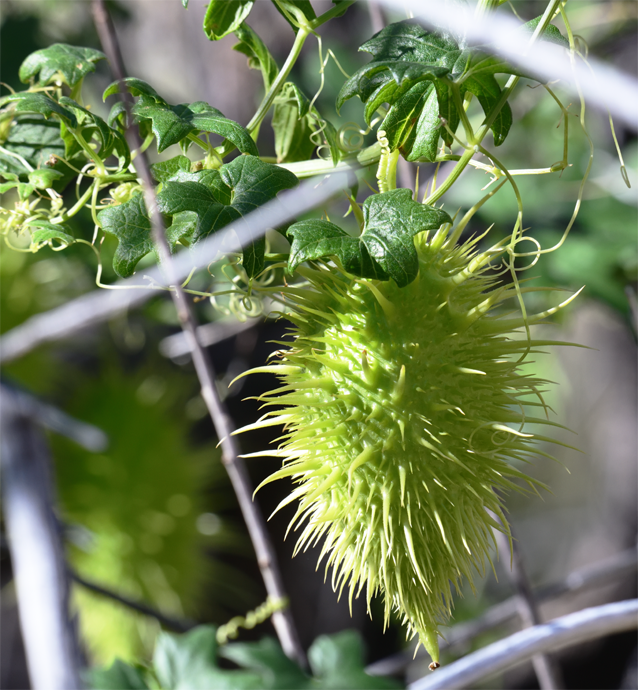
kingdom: Plantae
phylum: Tracheophyta
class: Magnoliopsida
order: Cucurbitales
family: Cucurbitaceae
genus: Marah
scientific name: Marah macrocarpa
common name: Cucamonga manroot
